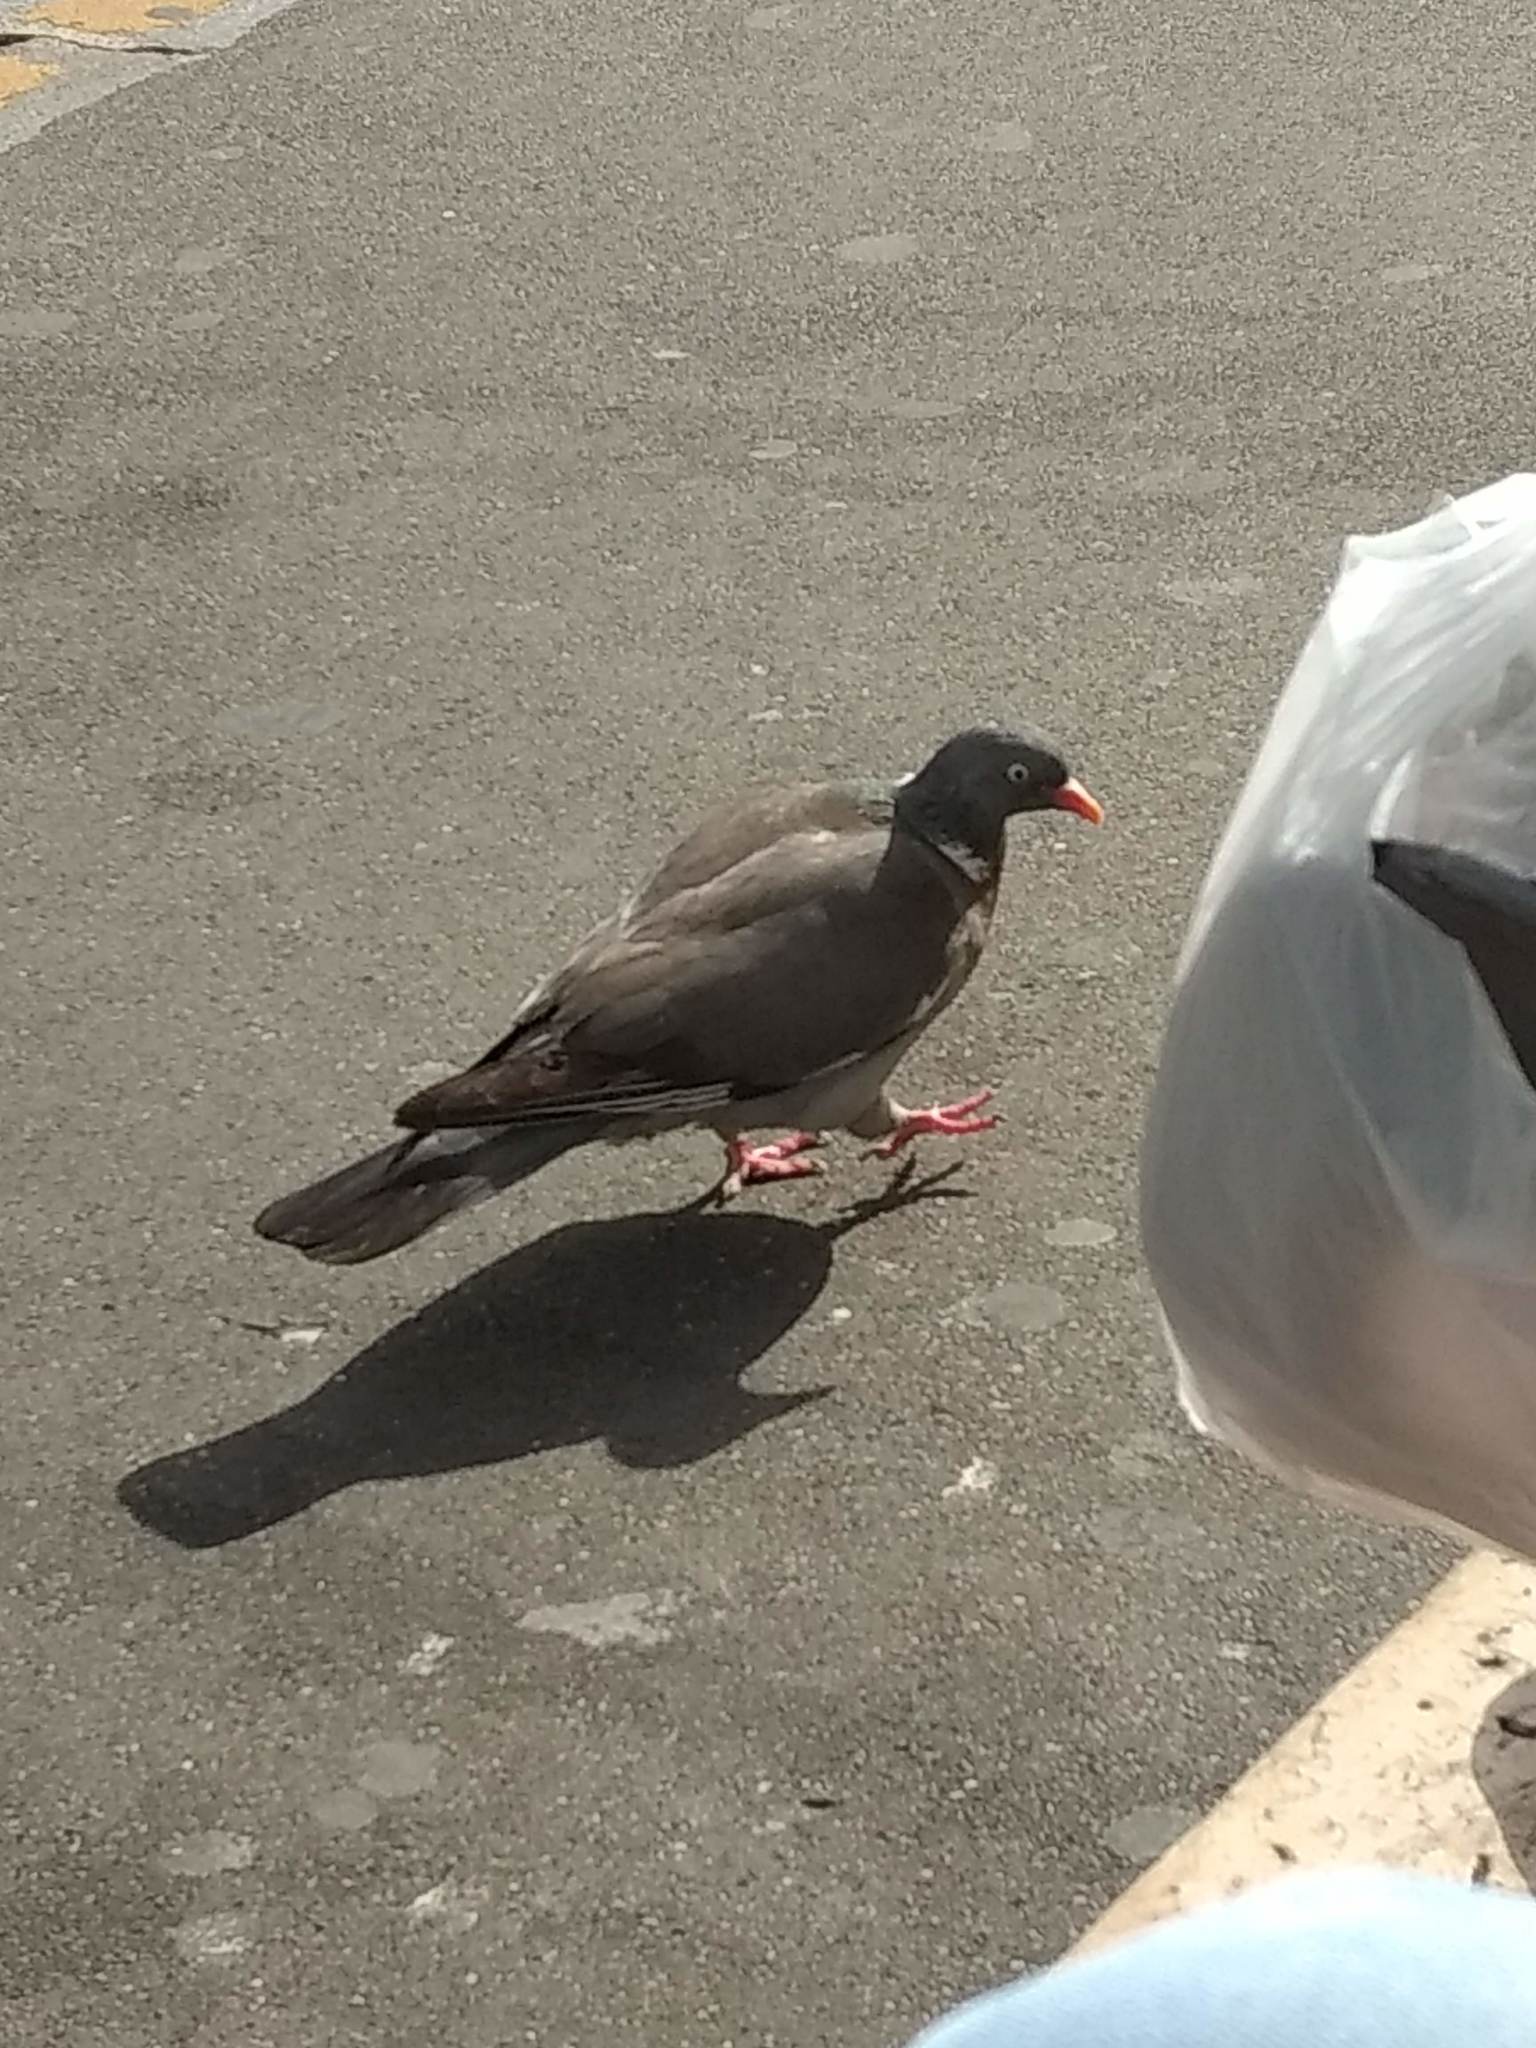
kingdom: Animalia
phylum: Chordata
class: Aves
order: Columbiformes
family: Columbidae
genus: Columba
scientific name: Columba palumbus
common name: Common wood pigeon
